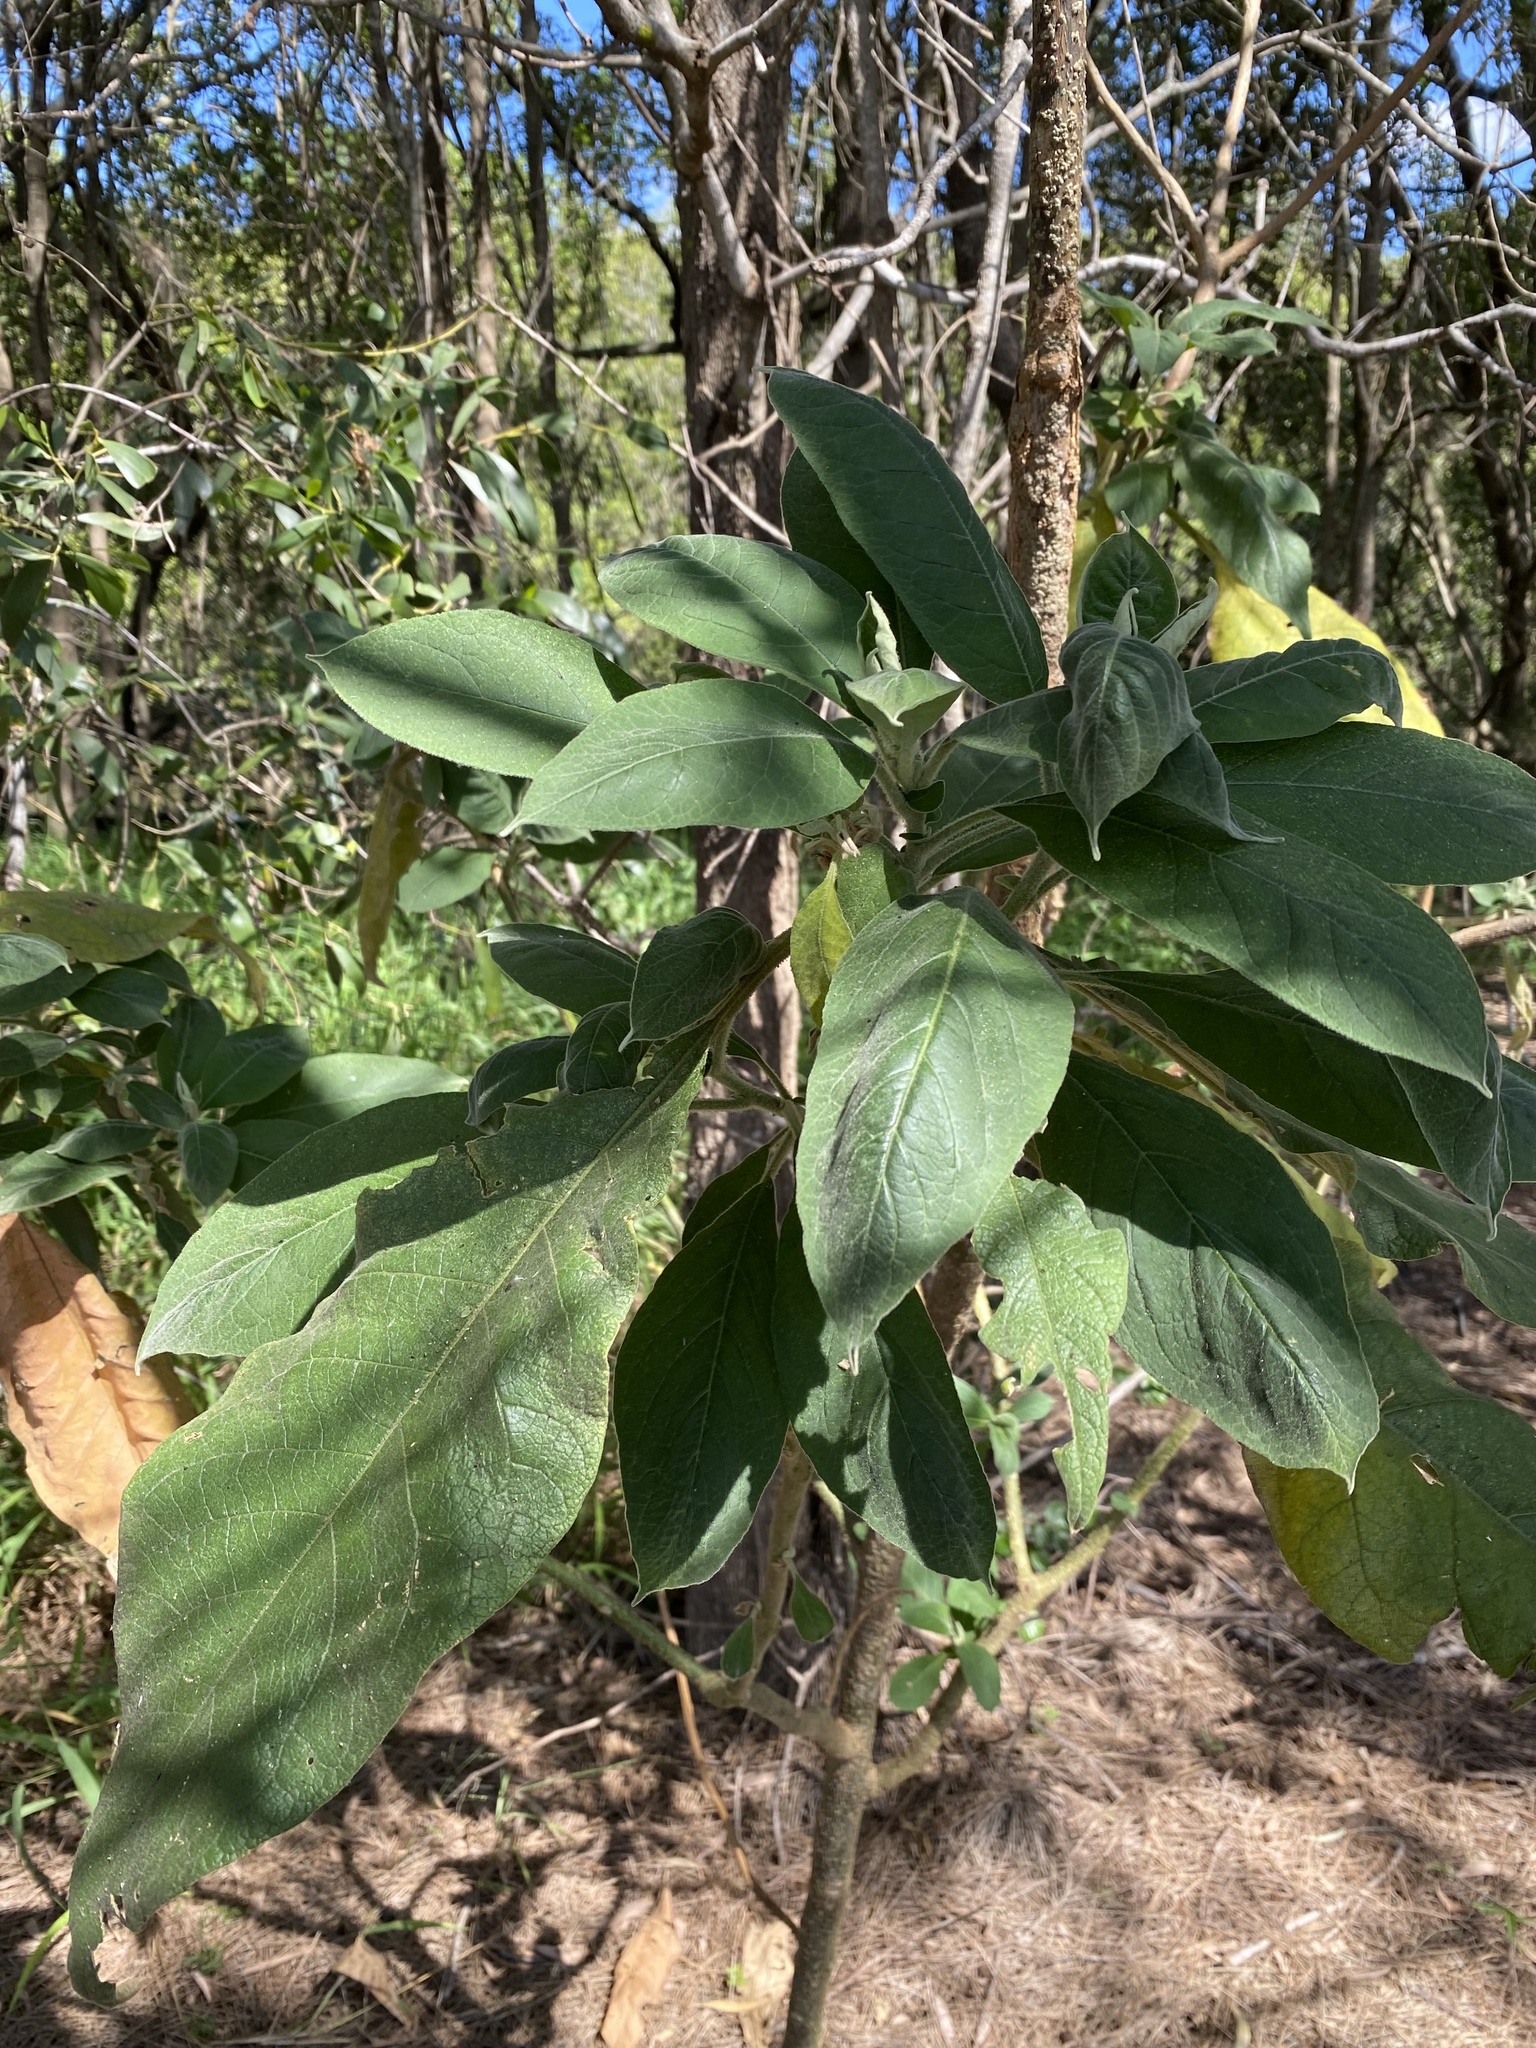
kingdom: Plantae
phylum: Tracheophyta
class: Magnoliopsida
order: Solanales
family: Solanaceae
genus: Solanum
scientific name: Solanum mauritianum
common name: Earleaf nightshade
